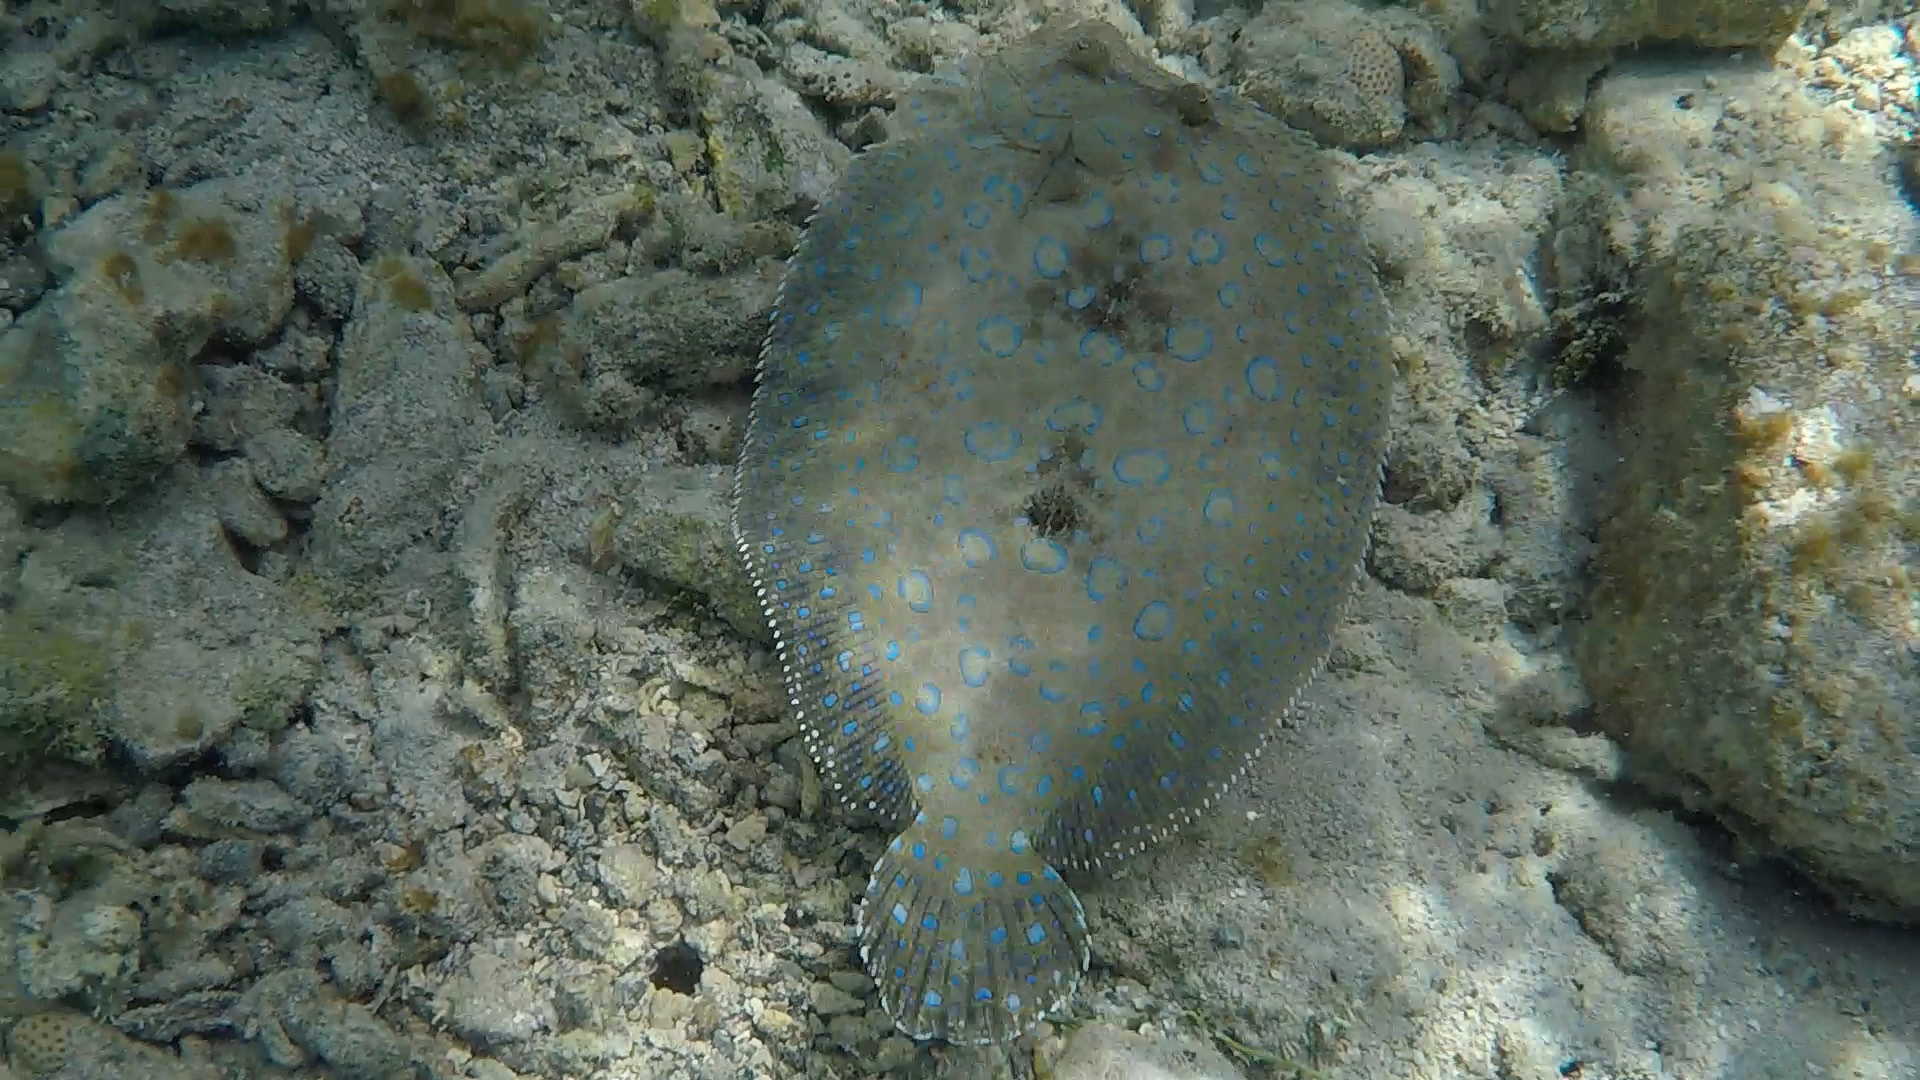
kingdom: Animalia
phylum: Chordata
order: Pleuronectiformes
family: Bothidae
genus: Bothus
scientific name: Bothus lunatus
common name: Peacock flounder
